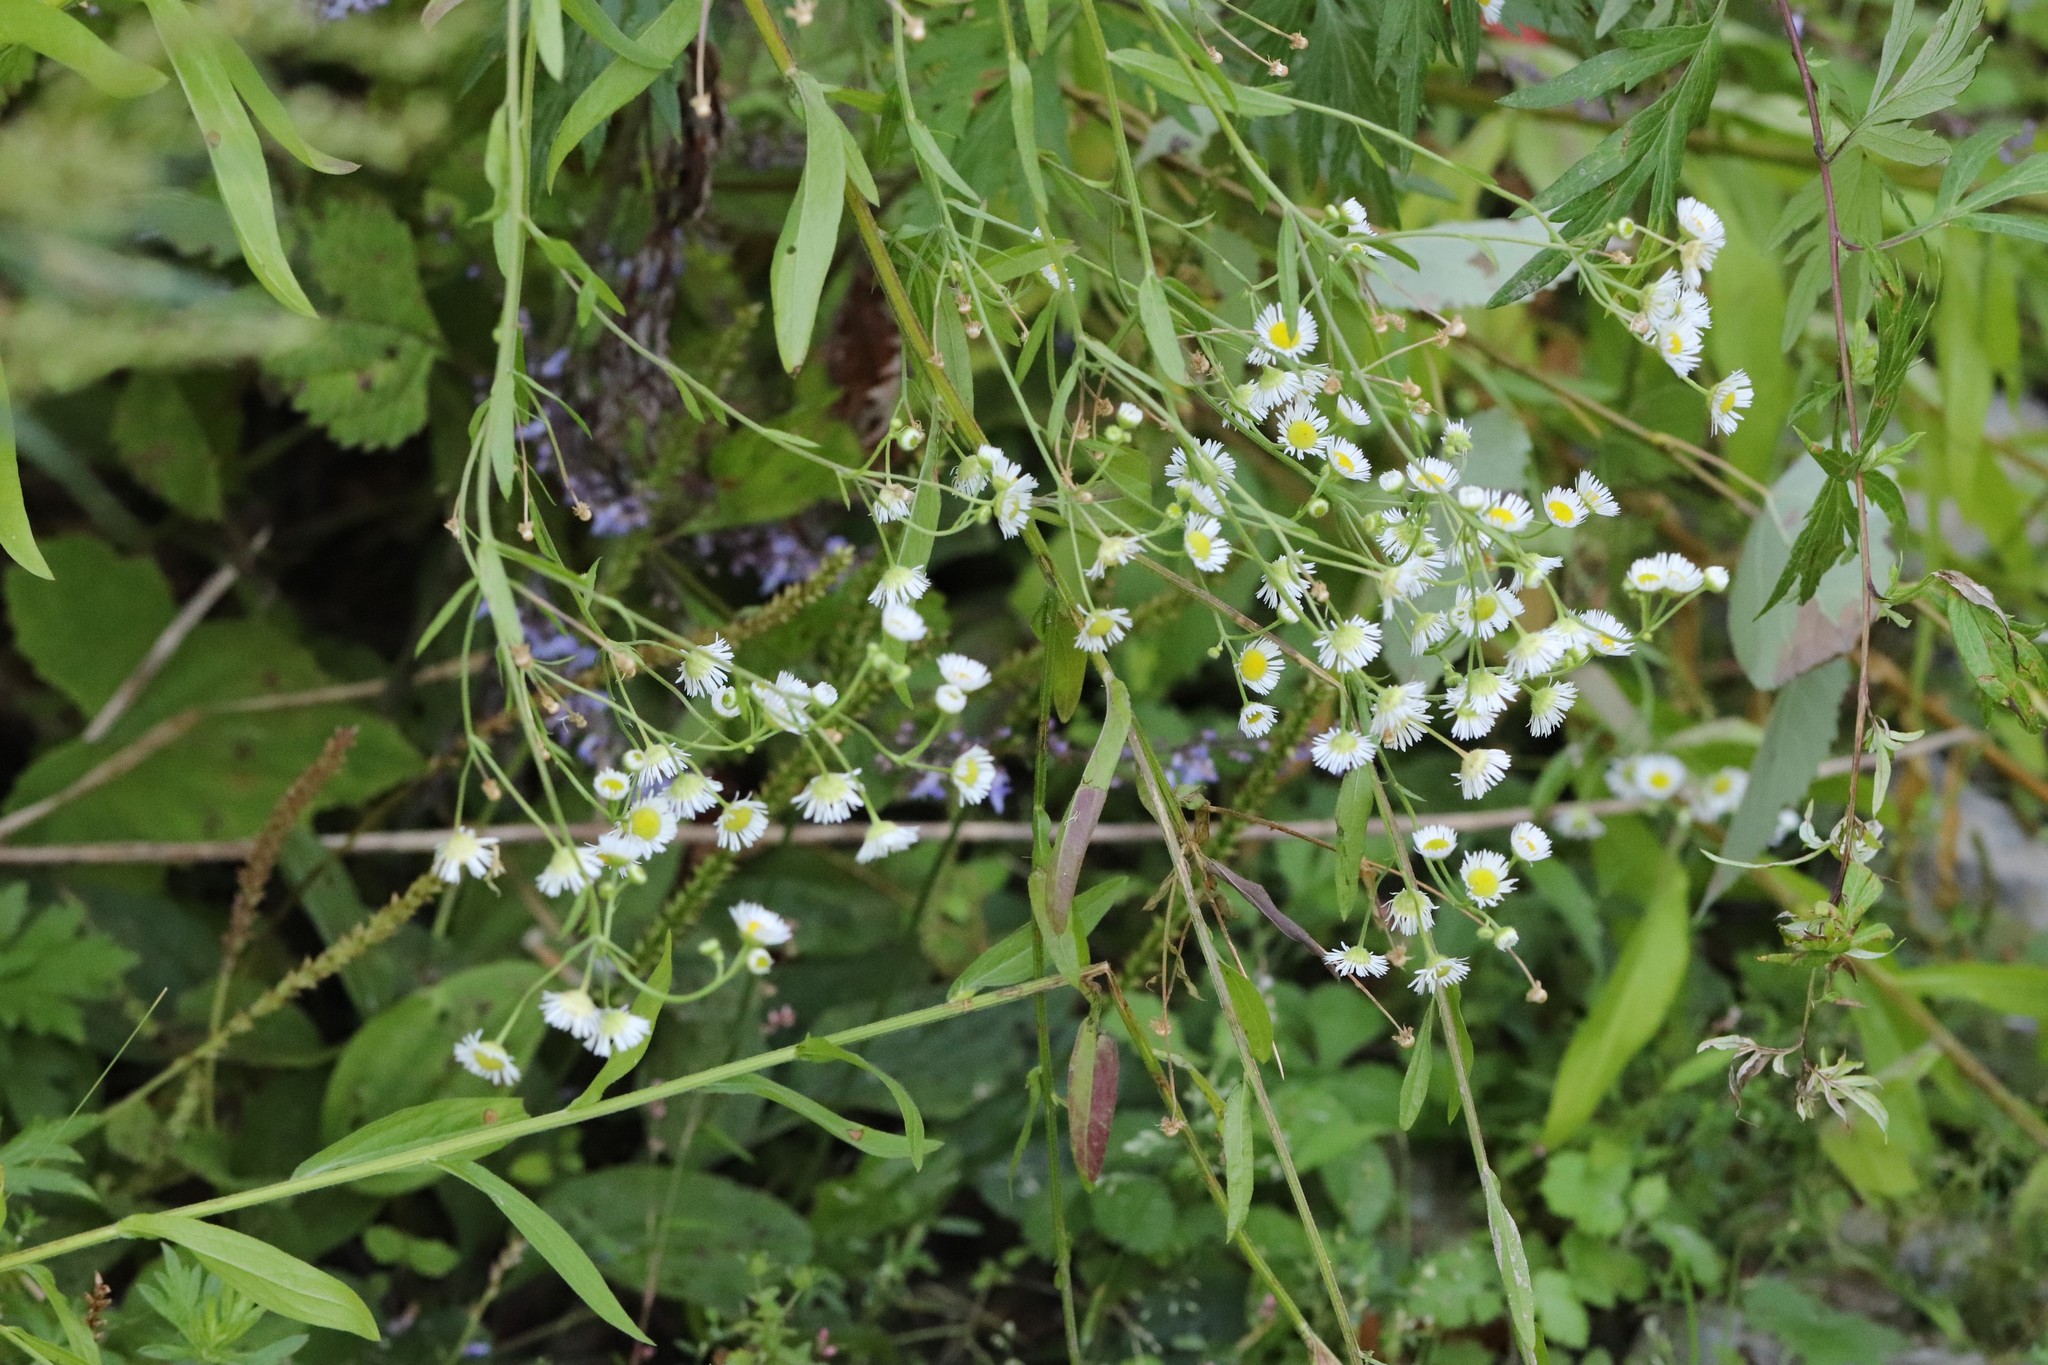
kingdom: Plantae
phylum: Tracheophyta
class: Magnoliopsida
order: Asterales
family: Asteraceae
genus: Erigeron
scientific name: Erigeron strigosus
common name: Common eastern fleabane
